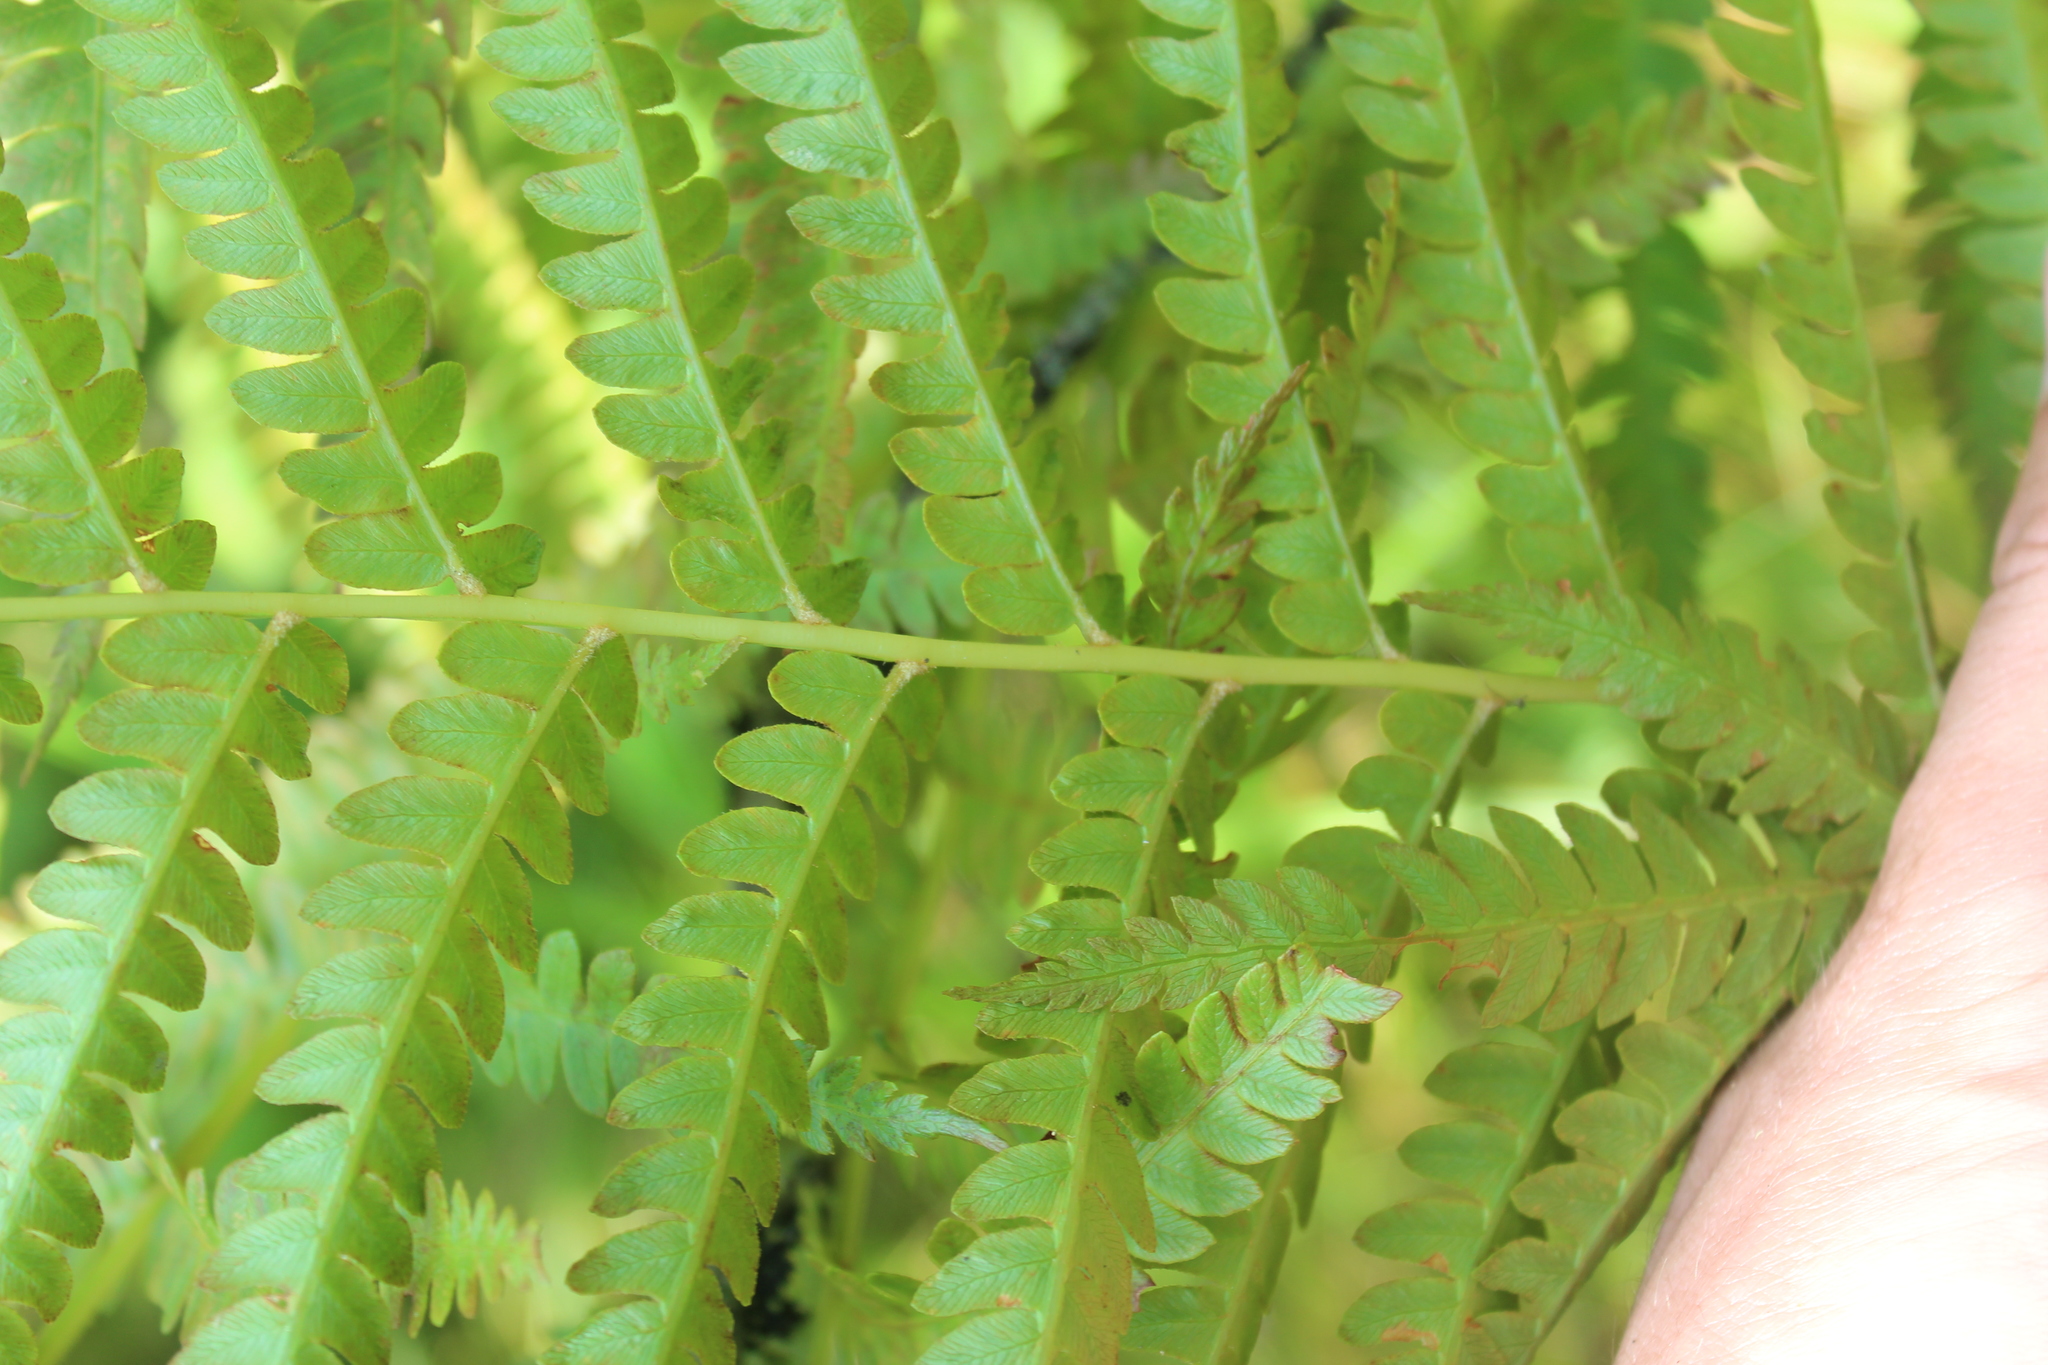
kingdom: Plantae
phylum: Tracheophyta
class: Polypodiopsida
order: Osmundales
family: Osmundaceae
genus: Osmundastrum
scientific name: Osmundastrum cinnamomeum
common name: Cinnamon fern
